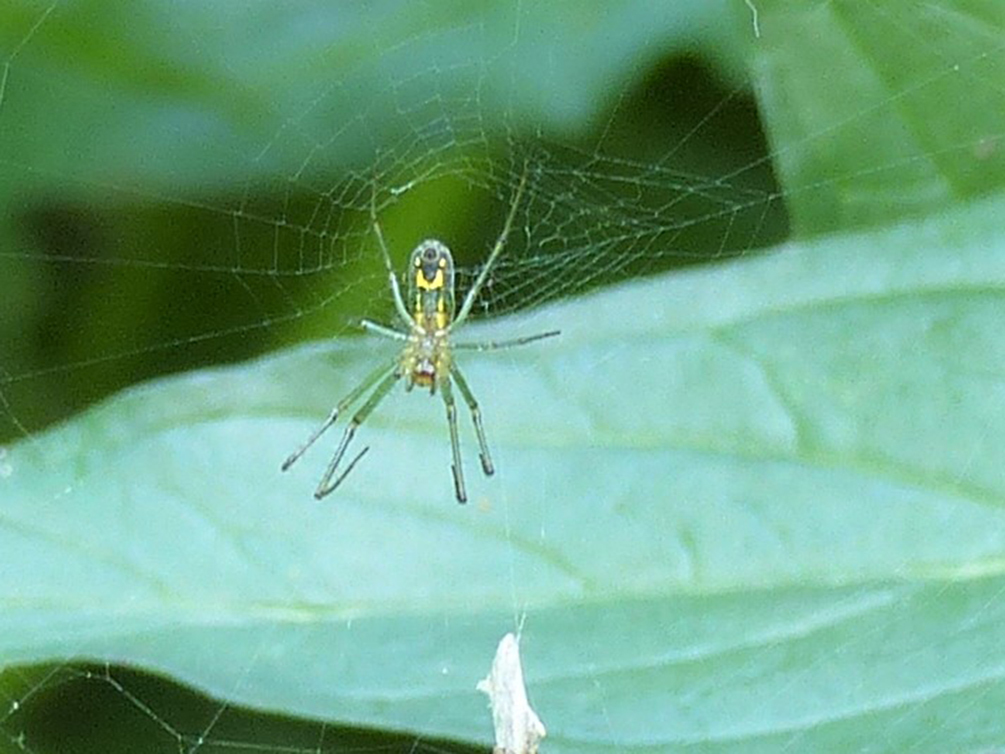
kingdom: Animalia
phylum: Arthropoda
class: Arachnida
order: Araneae
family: Tetragnathidae
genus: Leucauge
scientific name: Leucauge venusta
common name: Longjawed orb weavers
